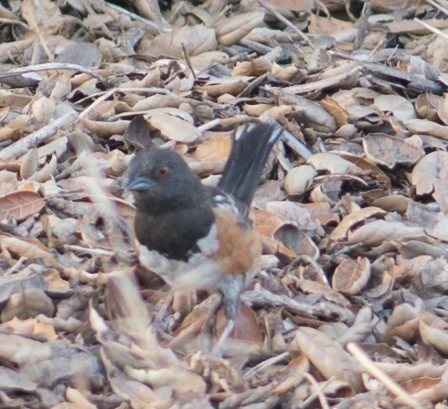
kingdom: Animalia
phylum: Chordata
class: Aves
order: Passeriformes
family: Passerellidae
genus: Pipilo
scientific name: Pipilo maculatus
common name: Spotted towhee
